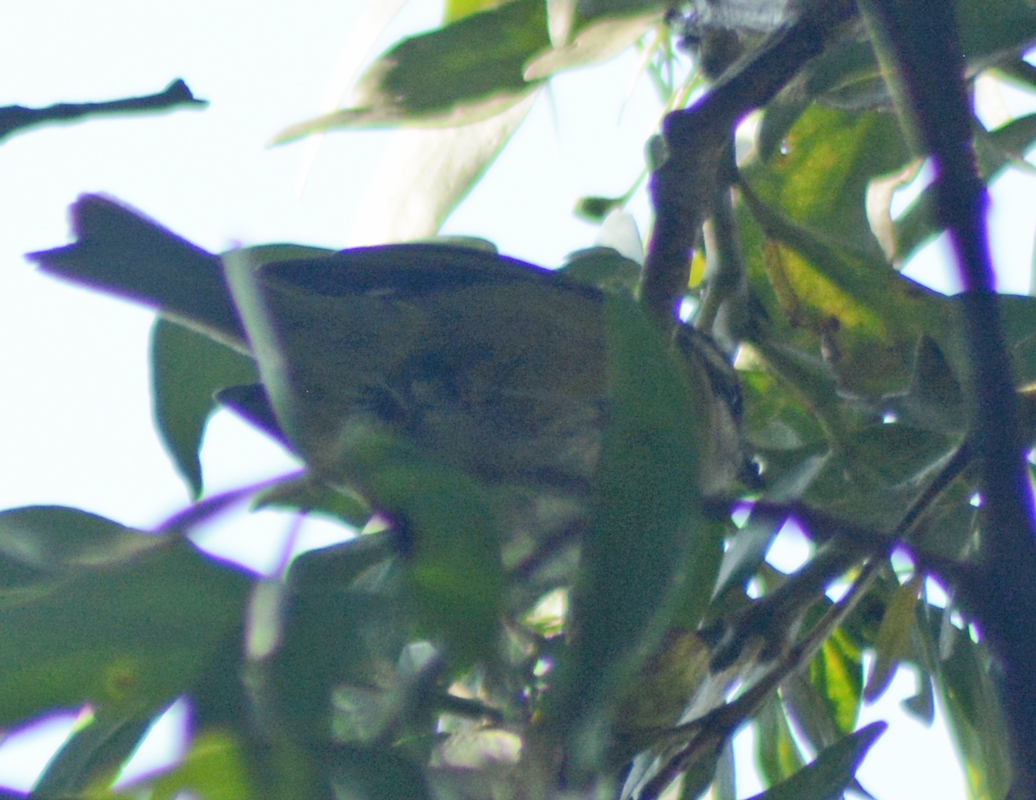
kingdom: Animalia
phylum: Chordata
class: Aves
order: Passeriformes
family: Passerellidae
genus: Chlorospingus
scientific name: Chlorospingus flavopectus
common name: Common chlorospingus
